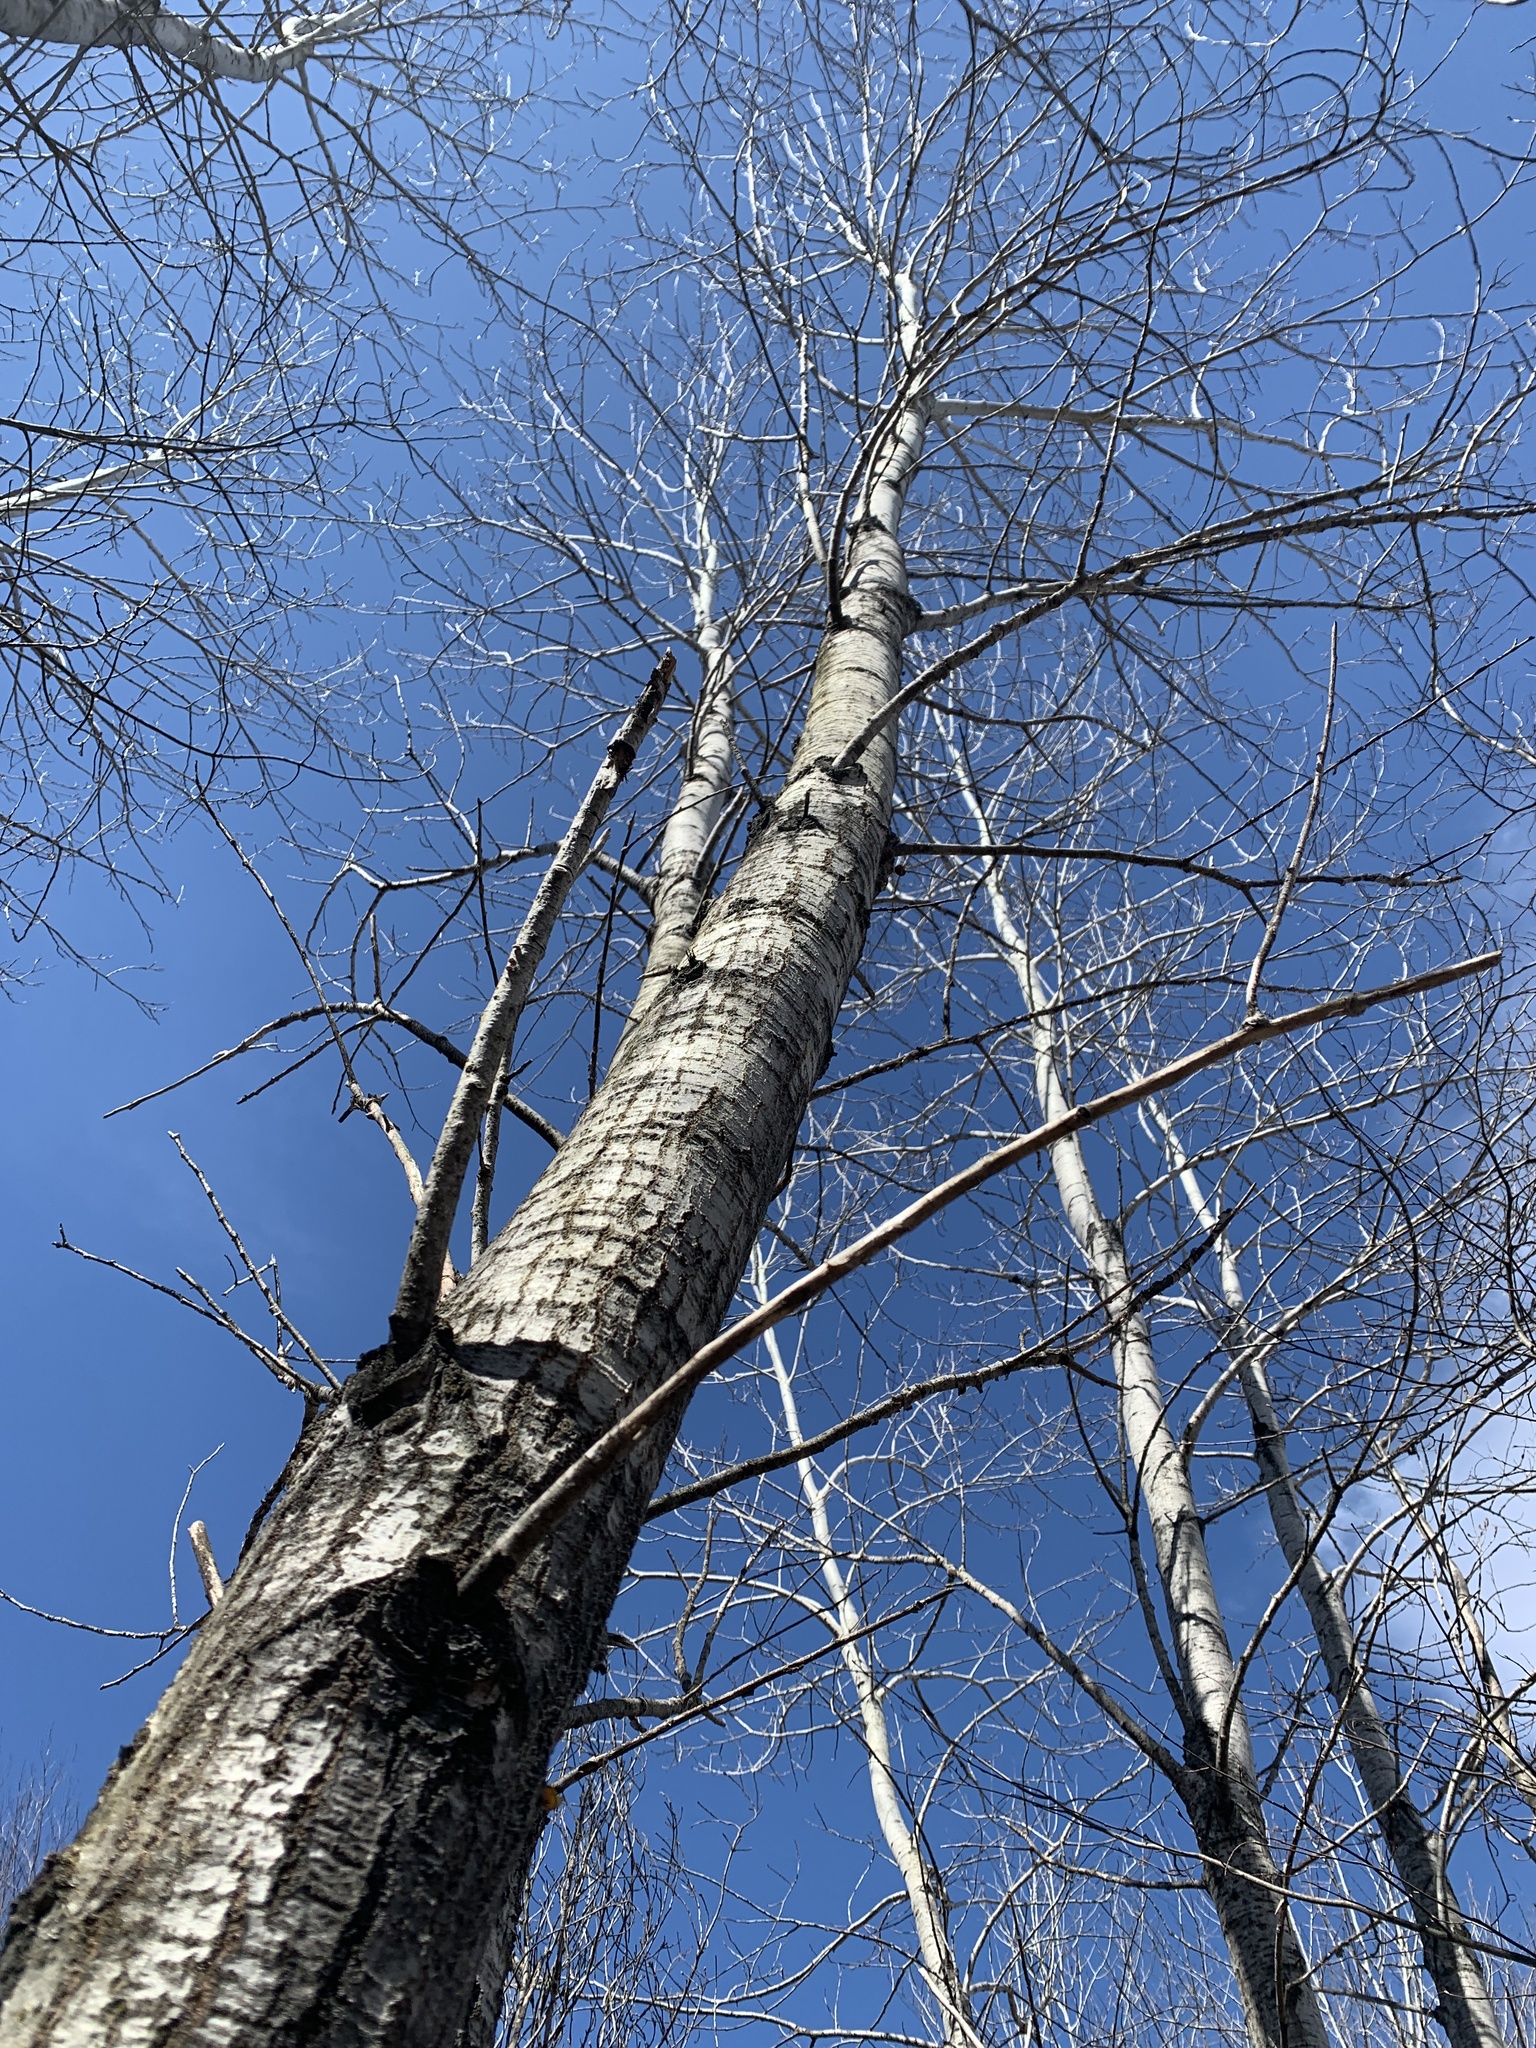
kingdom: Plantae
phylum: Tracheophyta
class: Magnoliopsida
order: Malpighiales
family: Salicaceae
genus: Populus
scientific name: Populus tremuloides
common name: Quaking aspen
